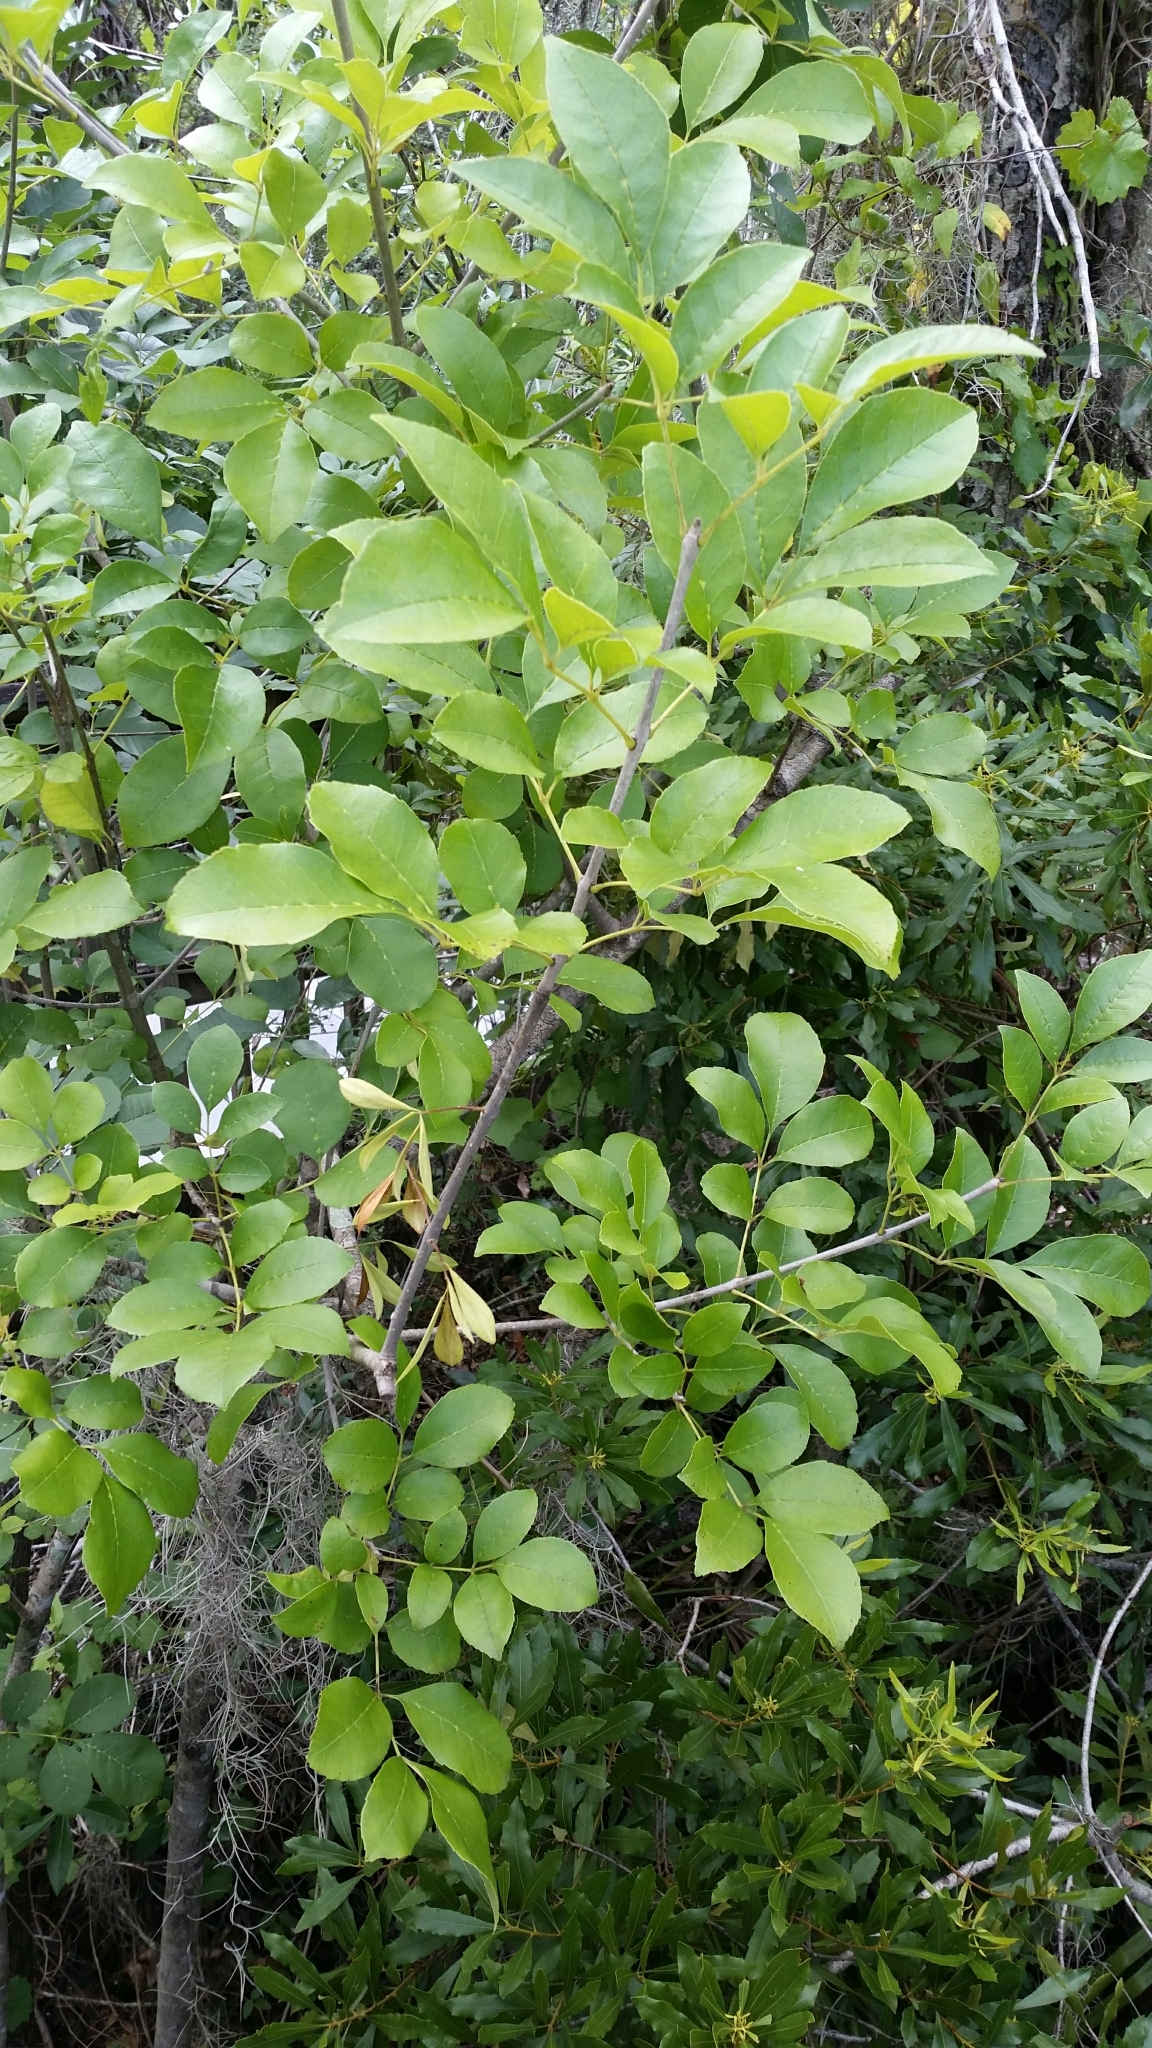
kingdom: Plantae
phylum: Tracheophyta
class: Magnoliopsida
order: Lamiales
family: Oleaceae
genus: Fraxinus
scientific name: Fraxinus caroliniana
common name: Carolina ash
